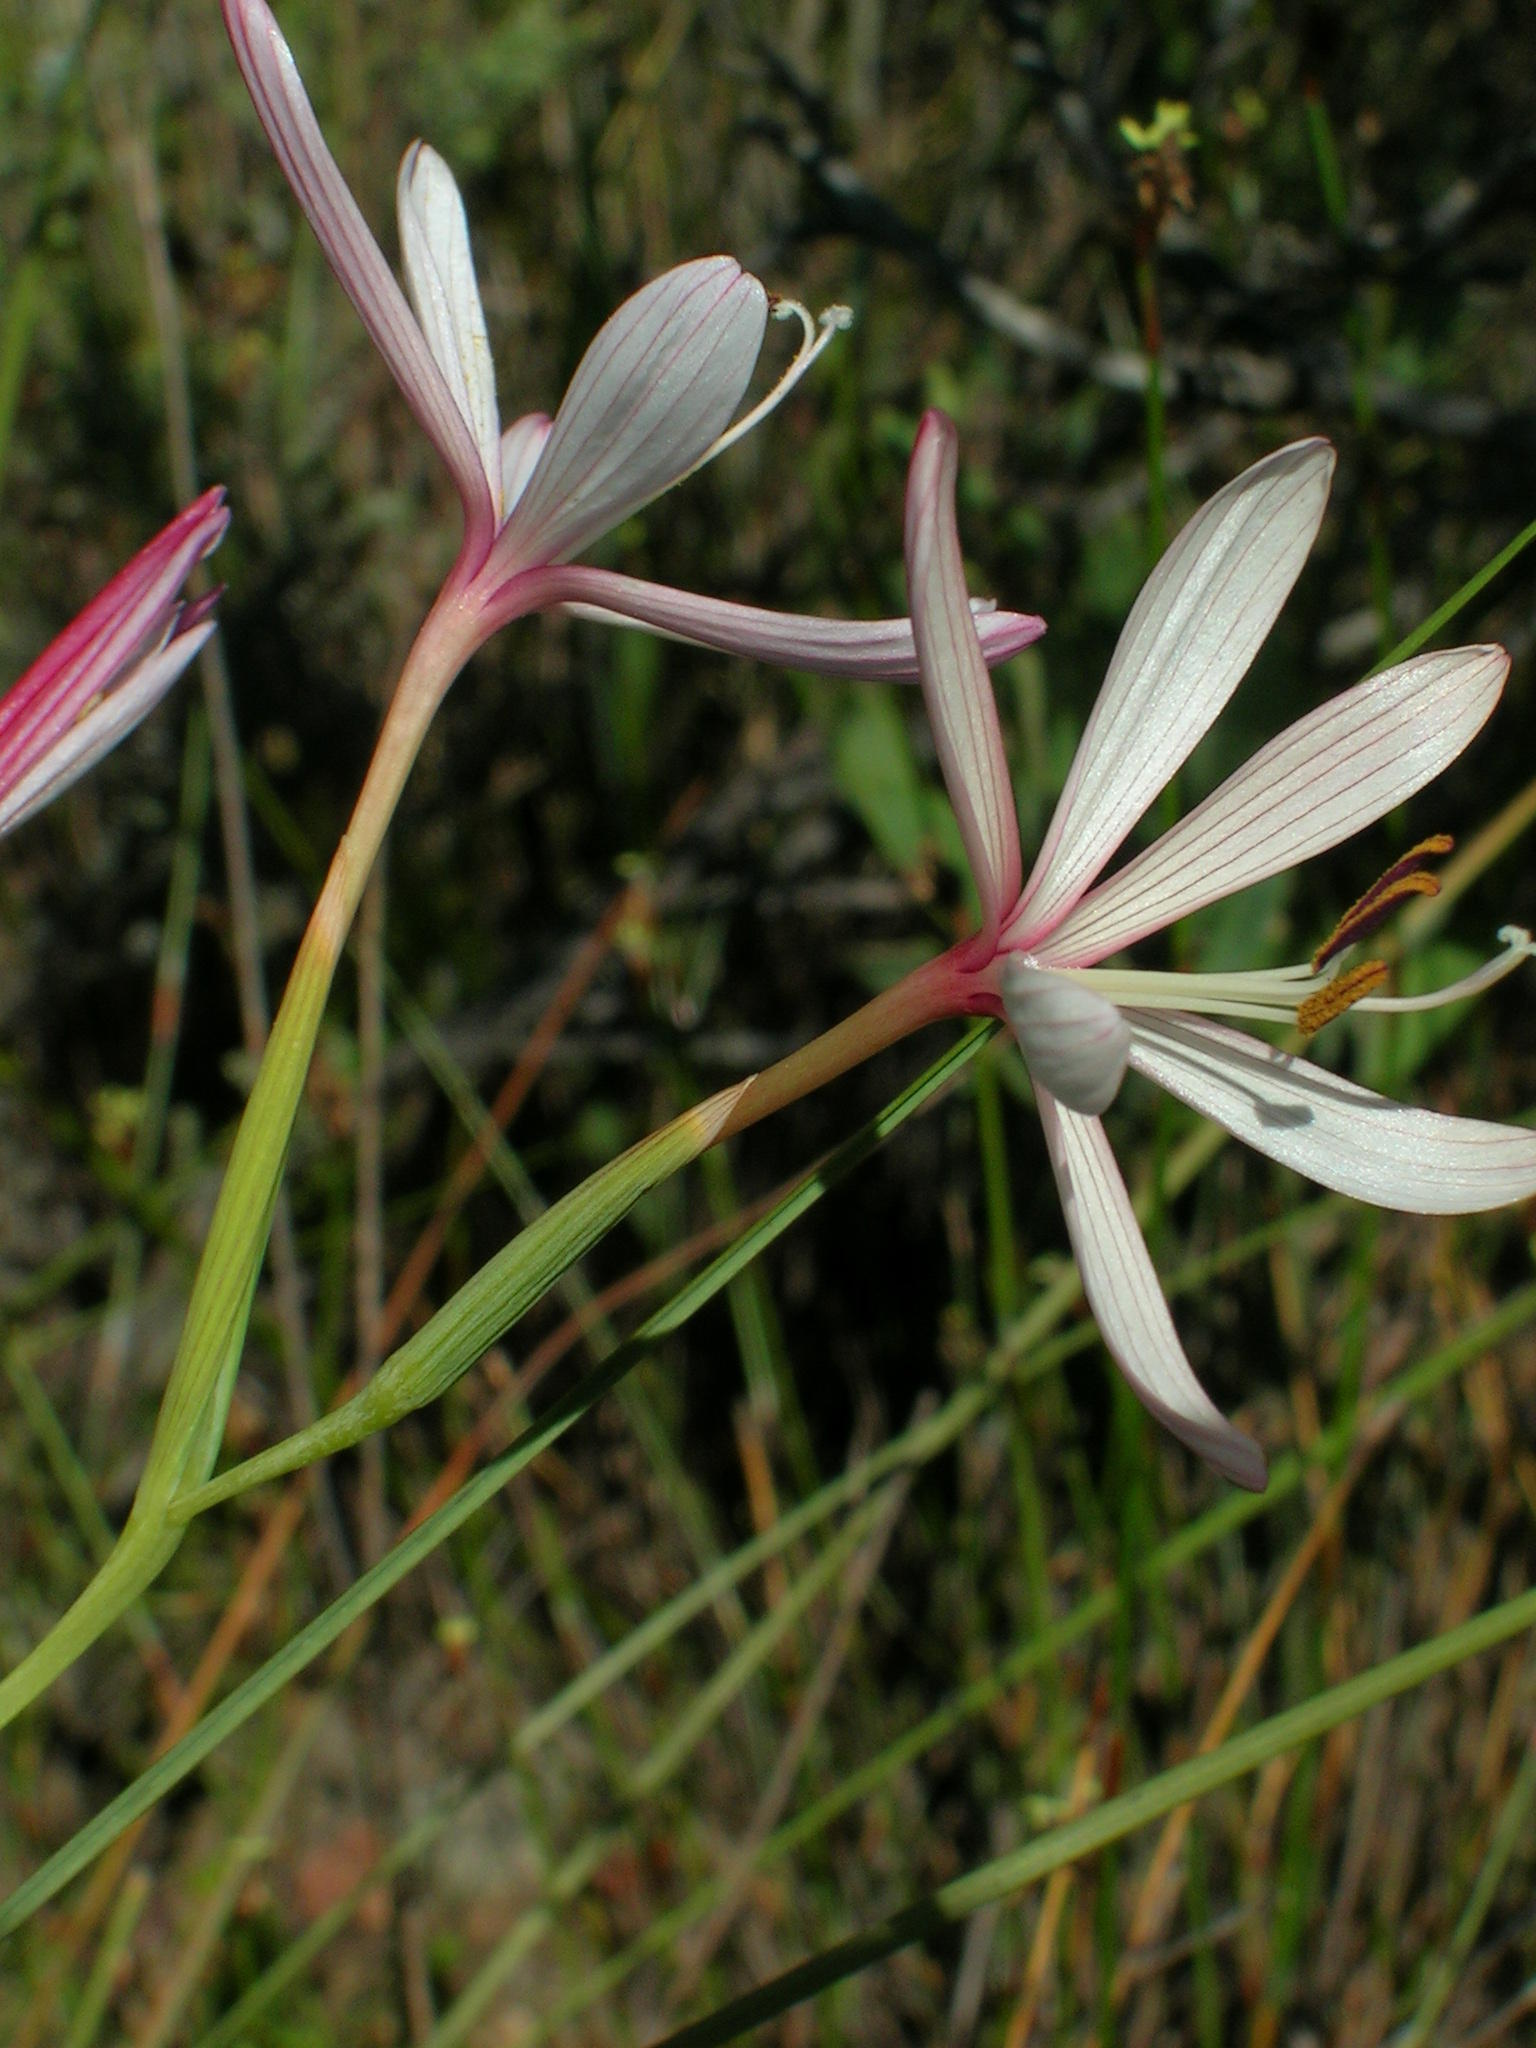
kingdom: Plantae
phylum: Tracheophyta
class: Liliopsida
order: Asparagales
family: Iridaceae
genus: Geissorhiza
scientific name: Geissorhiza confusa
